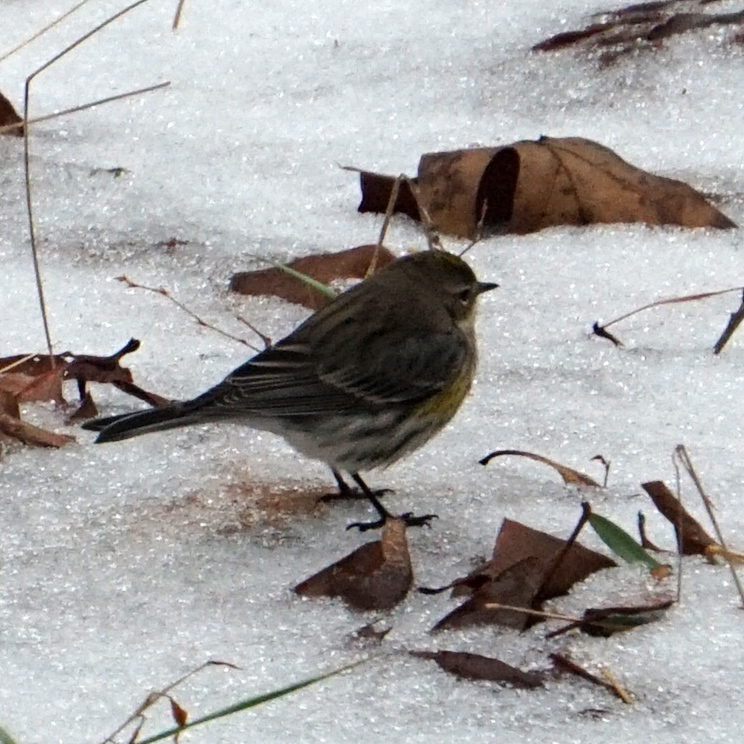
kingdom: Animalia
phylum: Chordata
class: Aves
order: Passeriformes
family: Parulidae
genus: Setophaga
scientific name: Setophaga coronata
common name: Myrtle warbler
